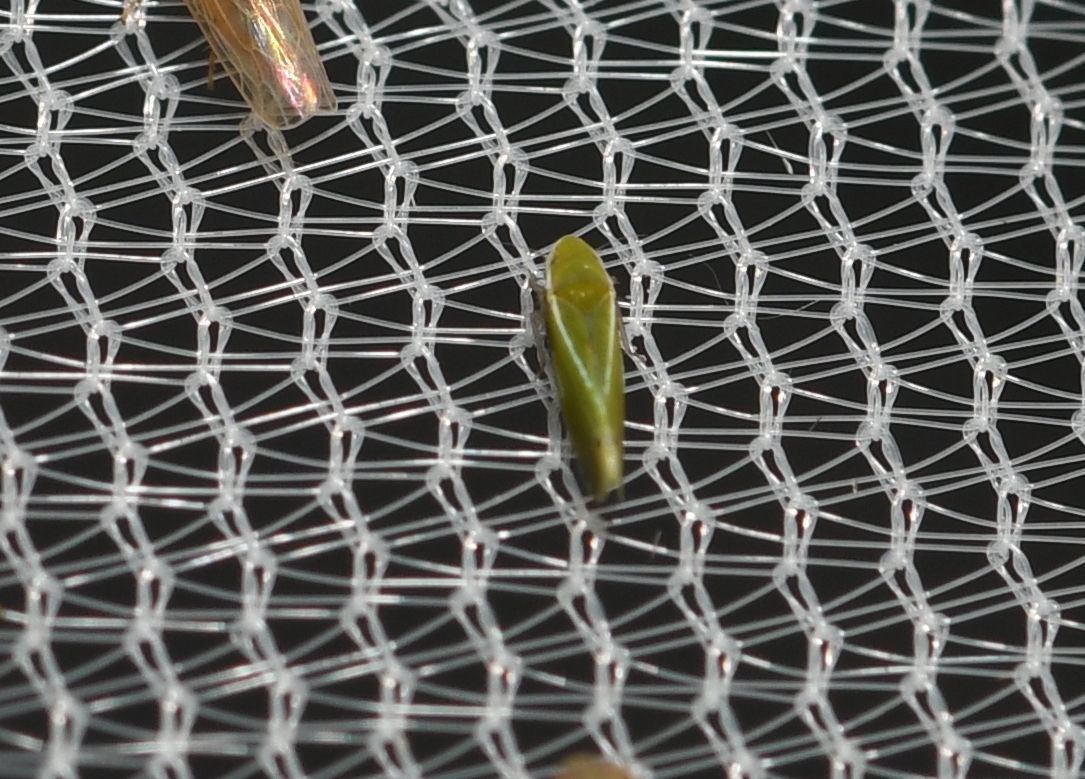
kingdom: Animalia
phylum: Arthropoda
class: Insecta
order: Hemiptera
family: Cicadellidae
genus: Alconeura
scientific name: Alconeura fulminea
